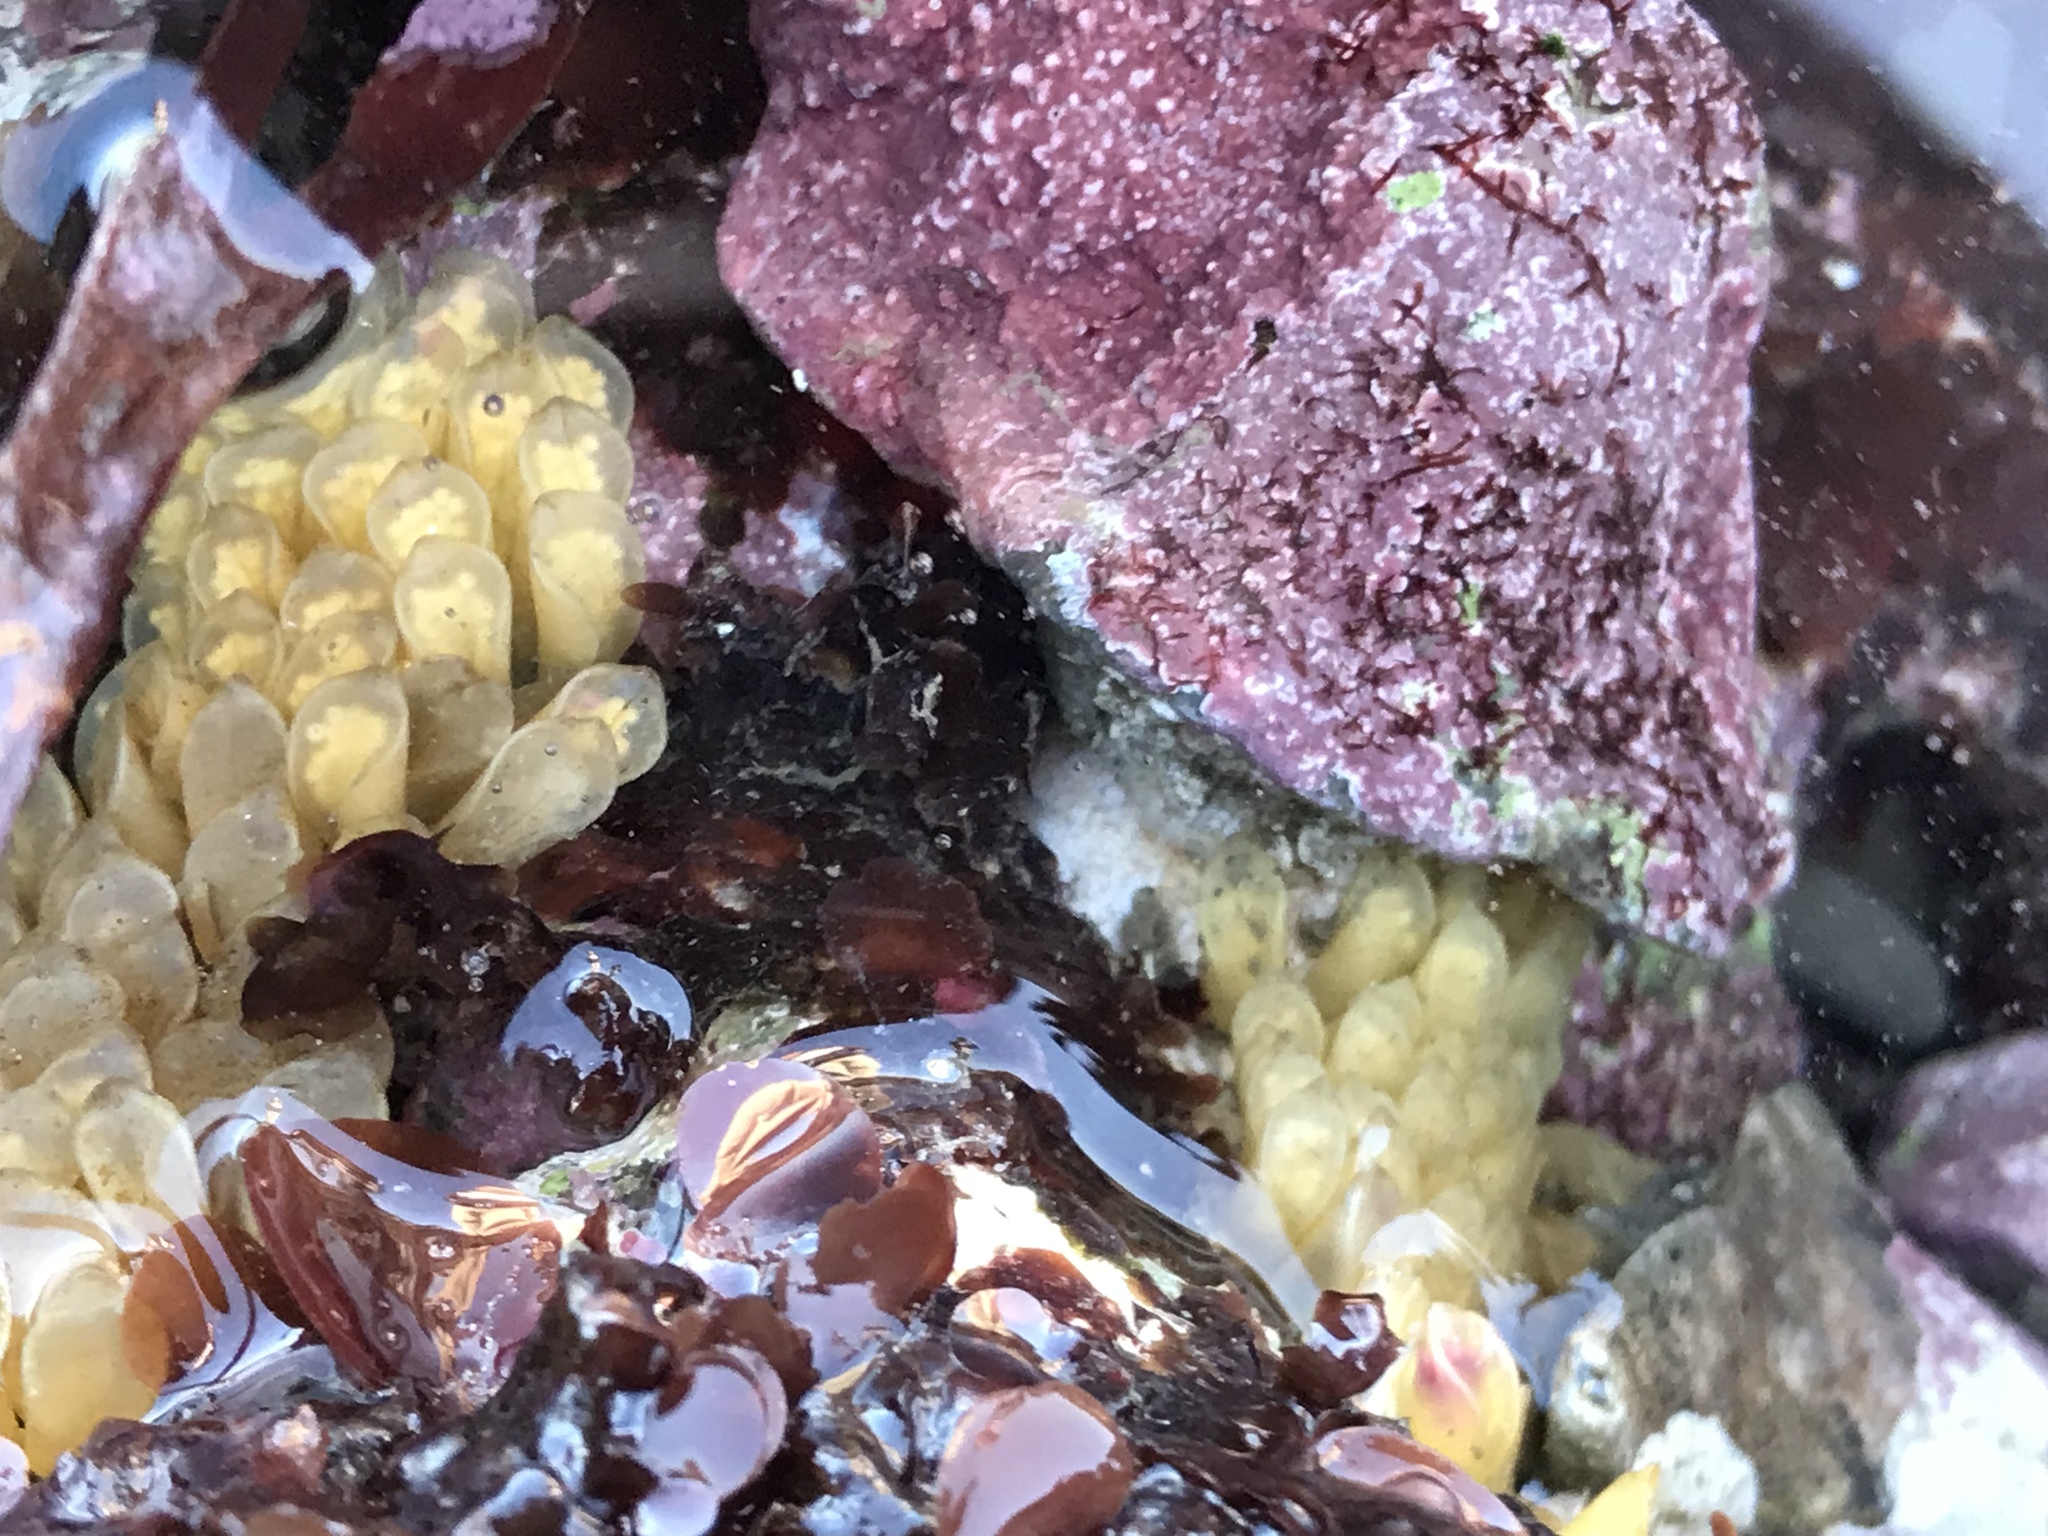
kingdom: Animalia
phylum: Mollusca
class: Gastropoda
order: Neogastropoda
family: Muricidae
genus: Ceratostoma
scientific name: Ceratostoma foliatum
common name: Foliate thorn purpura
